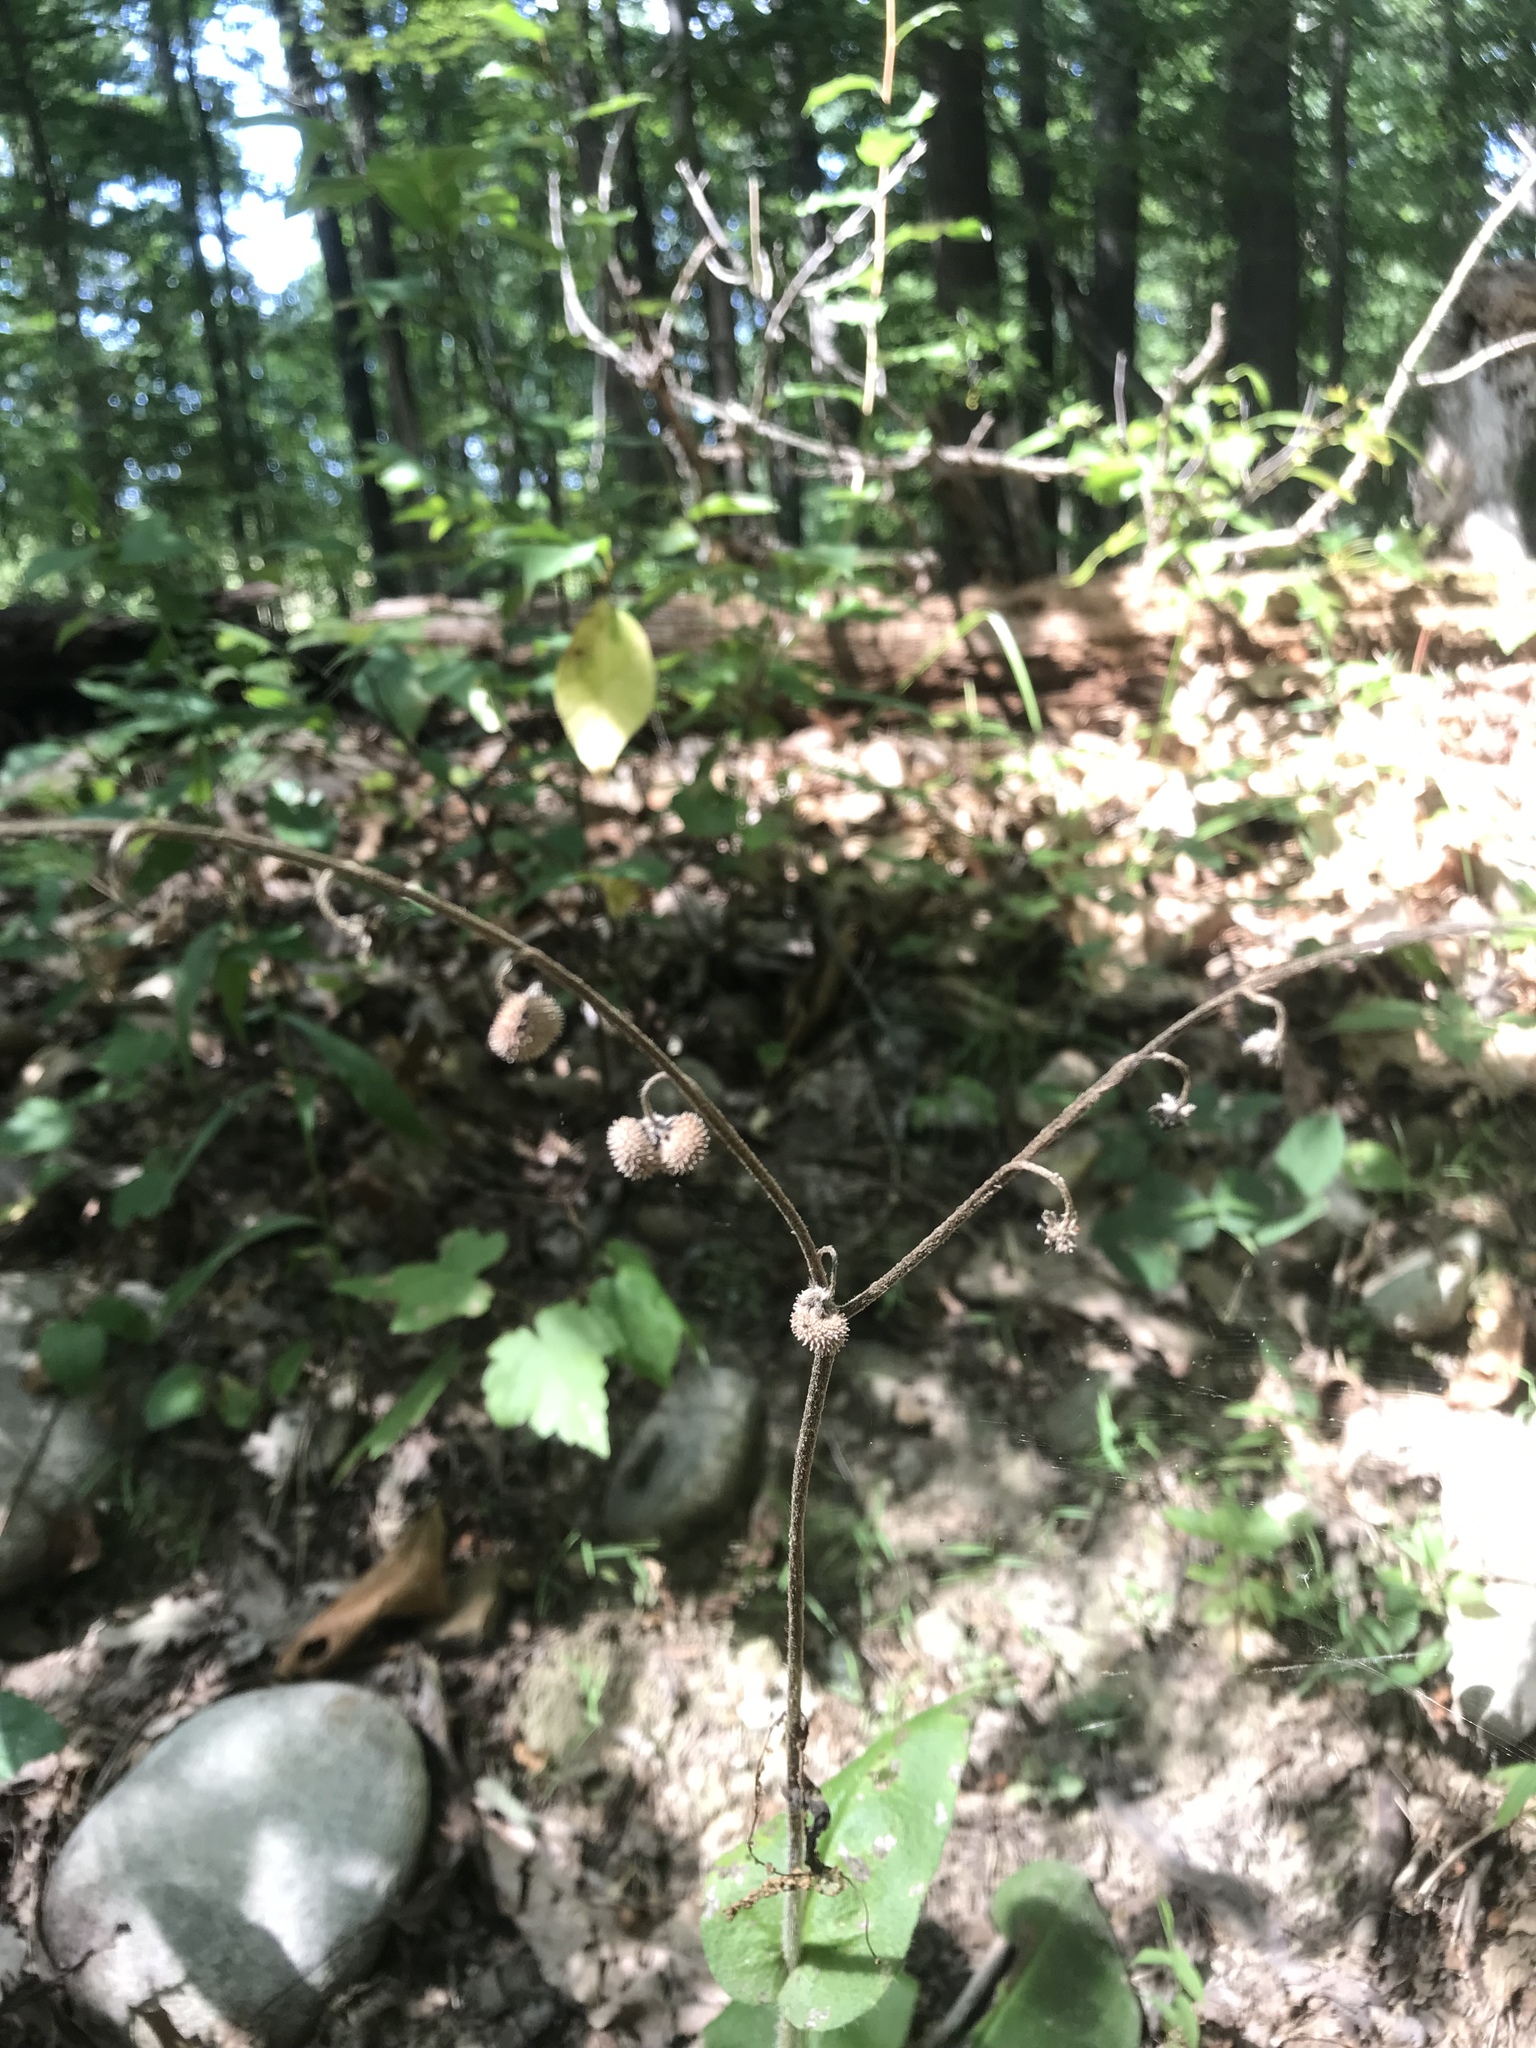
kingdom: Plantae
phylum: Tracheophyta
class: Magnoliopsida
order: Boraginales
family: Boraginaceae
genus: Andersonglossum
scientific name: Andersonglossum virginianum
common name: Wild comfrey
